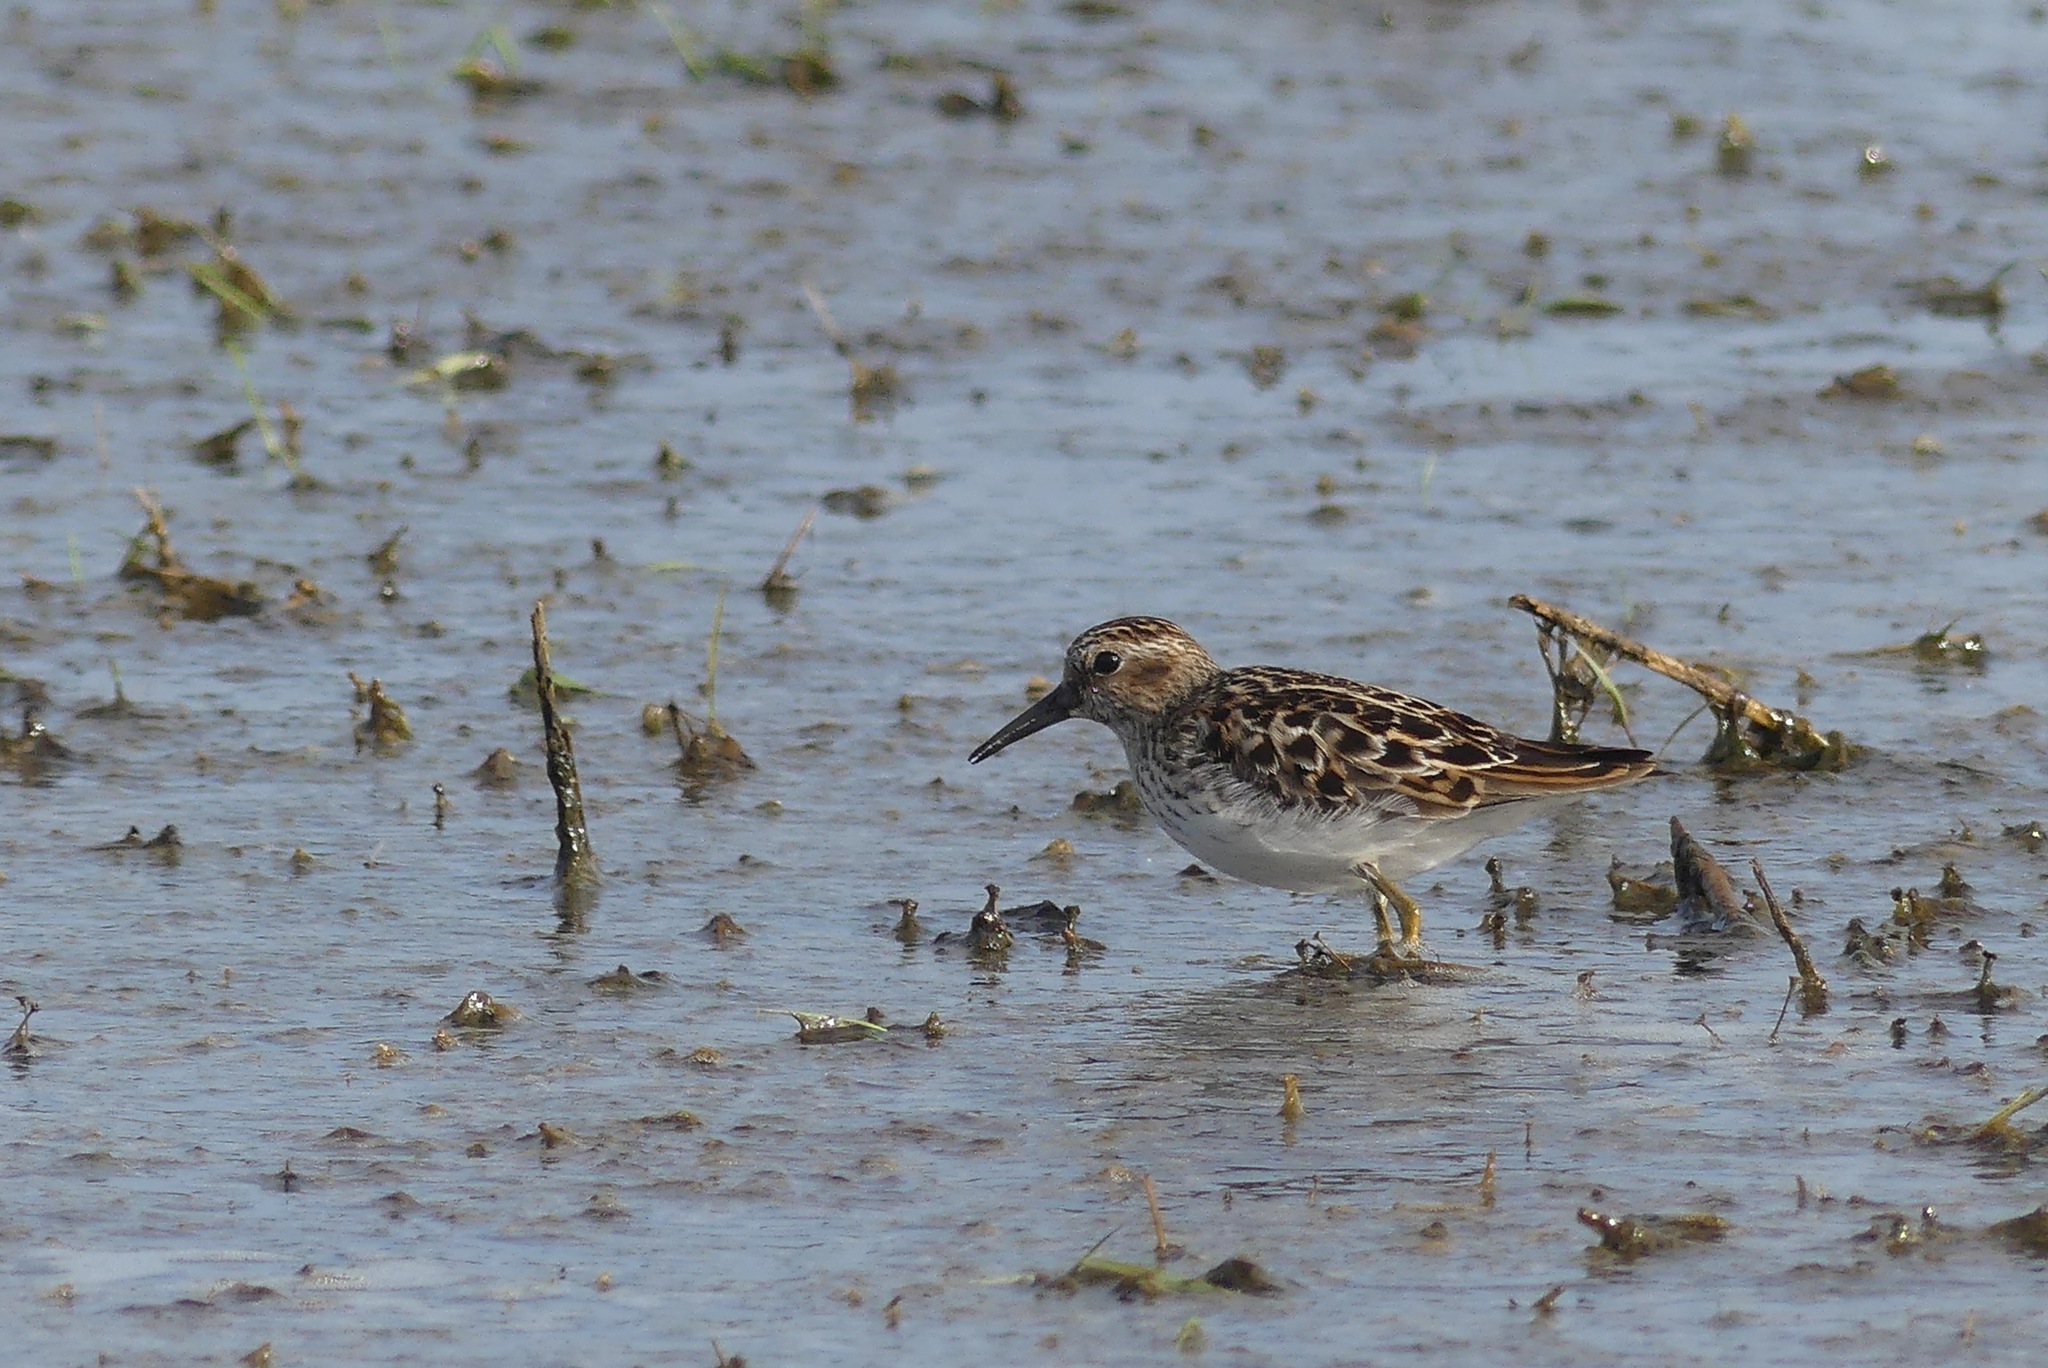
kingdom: Animalia
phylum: Chordata
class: Aves
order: Charadriiformes
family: Scolopacidae
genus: Calidris
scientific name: Calidris minutilla
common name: Least sandpiper
